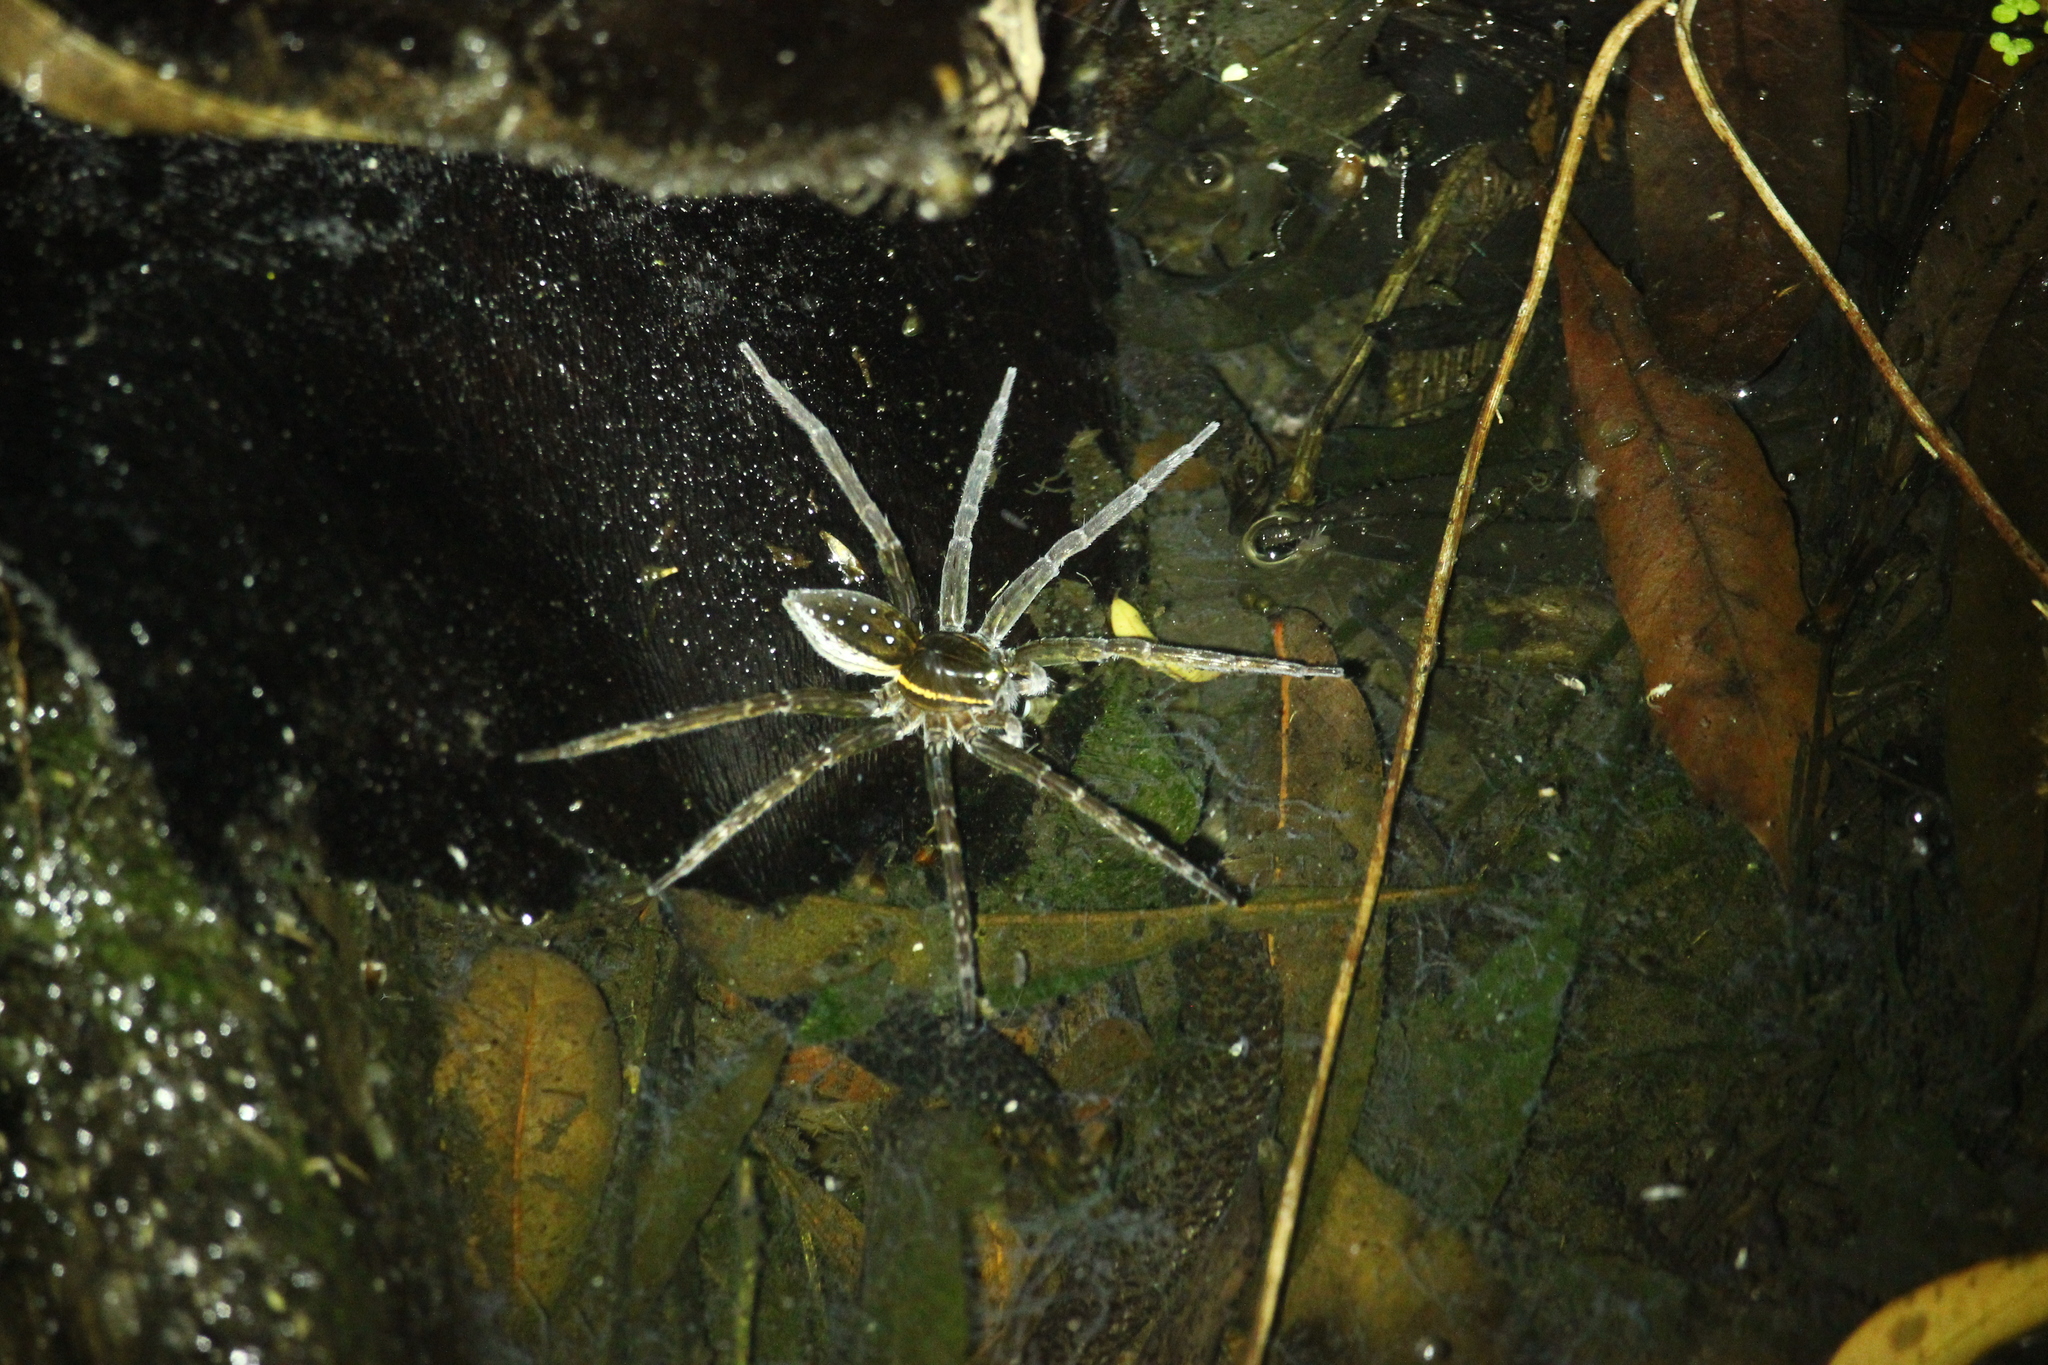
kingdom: Animalia
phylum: Arthropoda
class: Arachnida
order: Araneae
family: Pisauridae
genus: Dolomedes
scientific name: Dolomedes triton
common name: Six-spotted fishing spider
